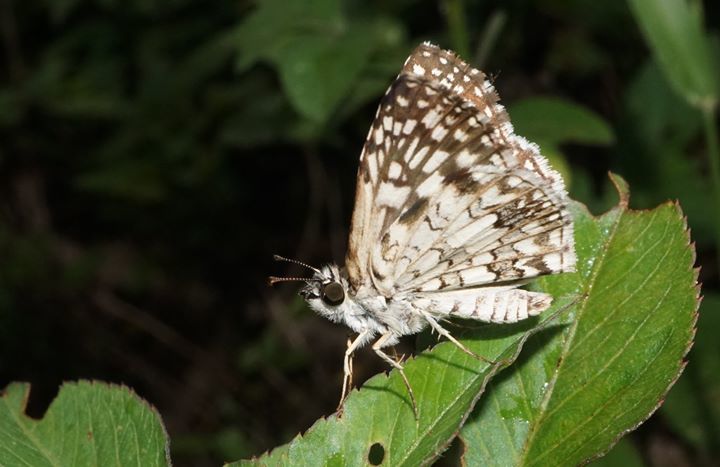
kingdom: Animalia
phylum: Arthropoda
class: Insecta
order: Lepidoptera
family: Hesperiidae
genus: Pyrgus
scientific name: Pyrgus oileus
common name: Tropical checkered-skipper
